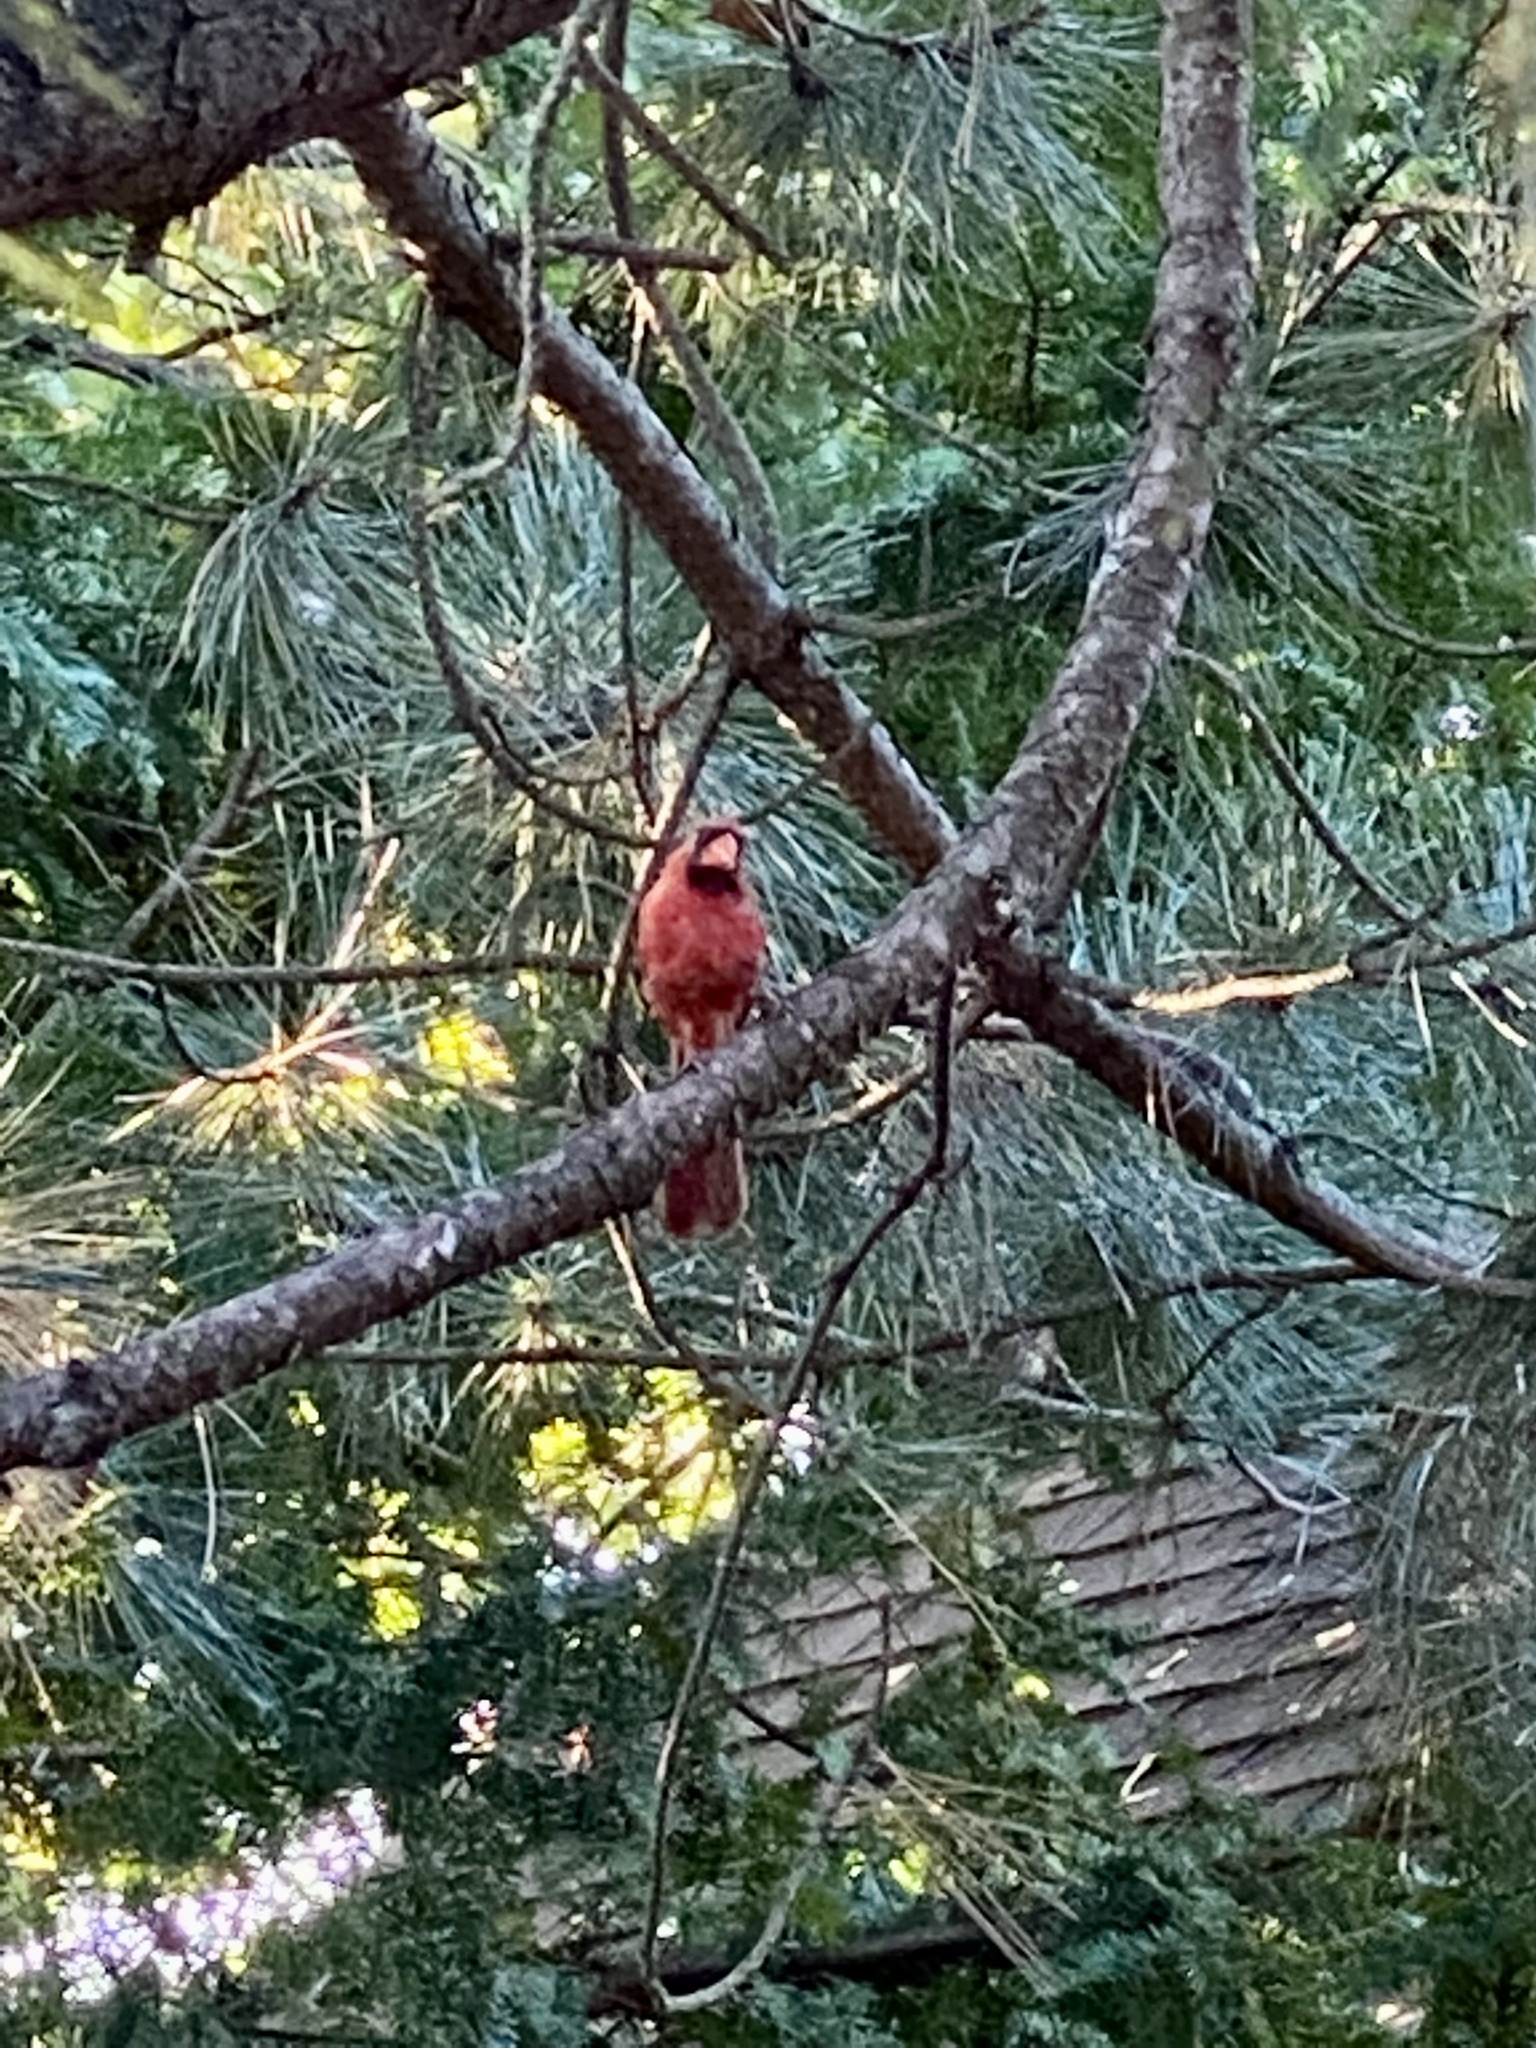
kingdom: Animalia
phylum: Chordata
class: Aves
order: Passeriformes
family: Cardinalidae
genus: Cardinalis
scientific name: Cardinalis cardinalis
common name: Northern cardinal
